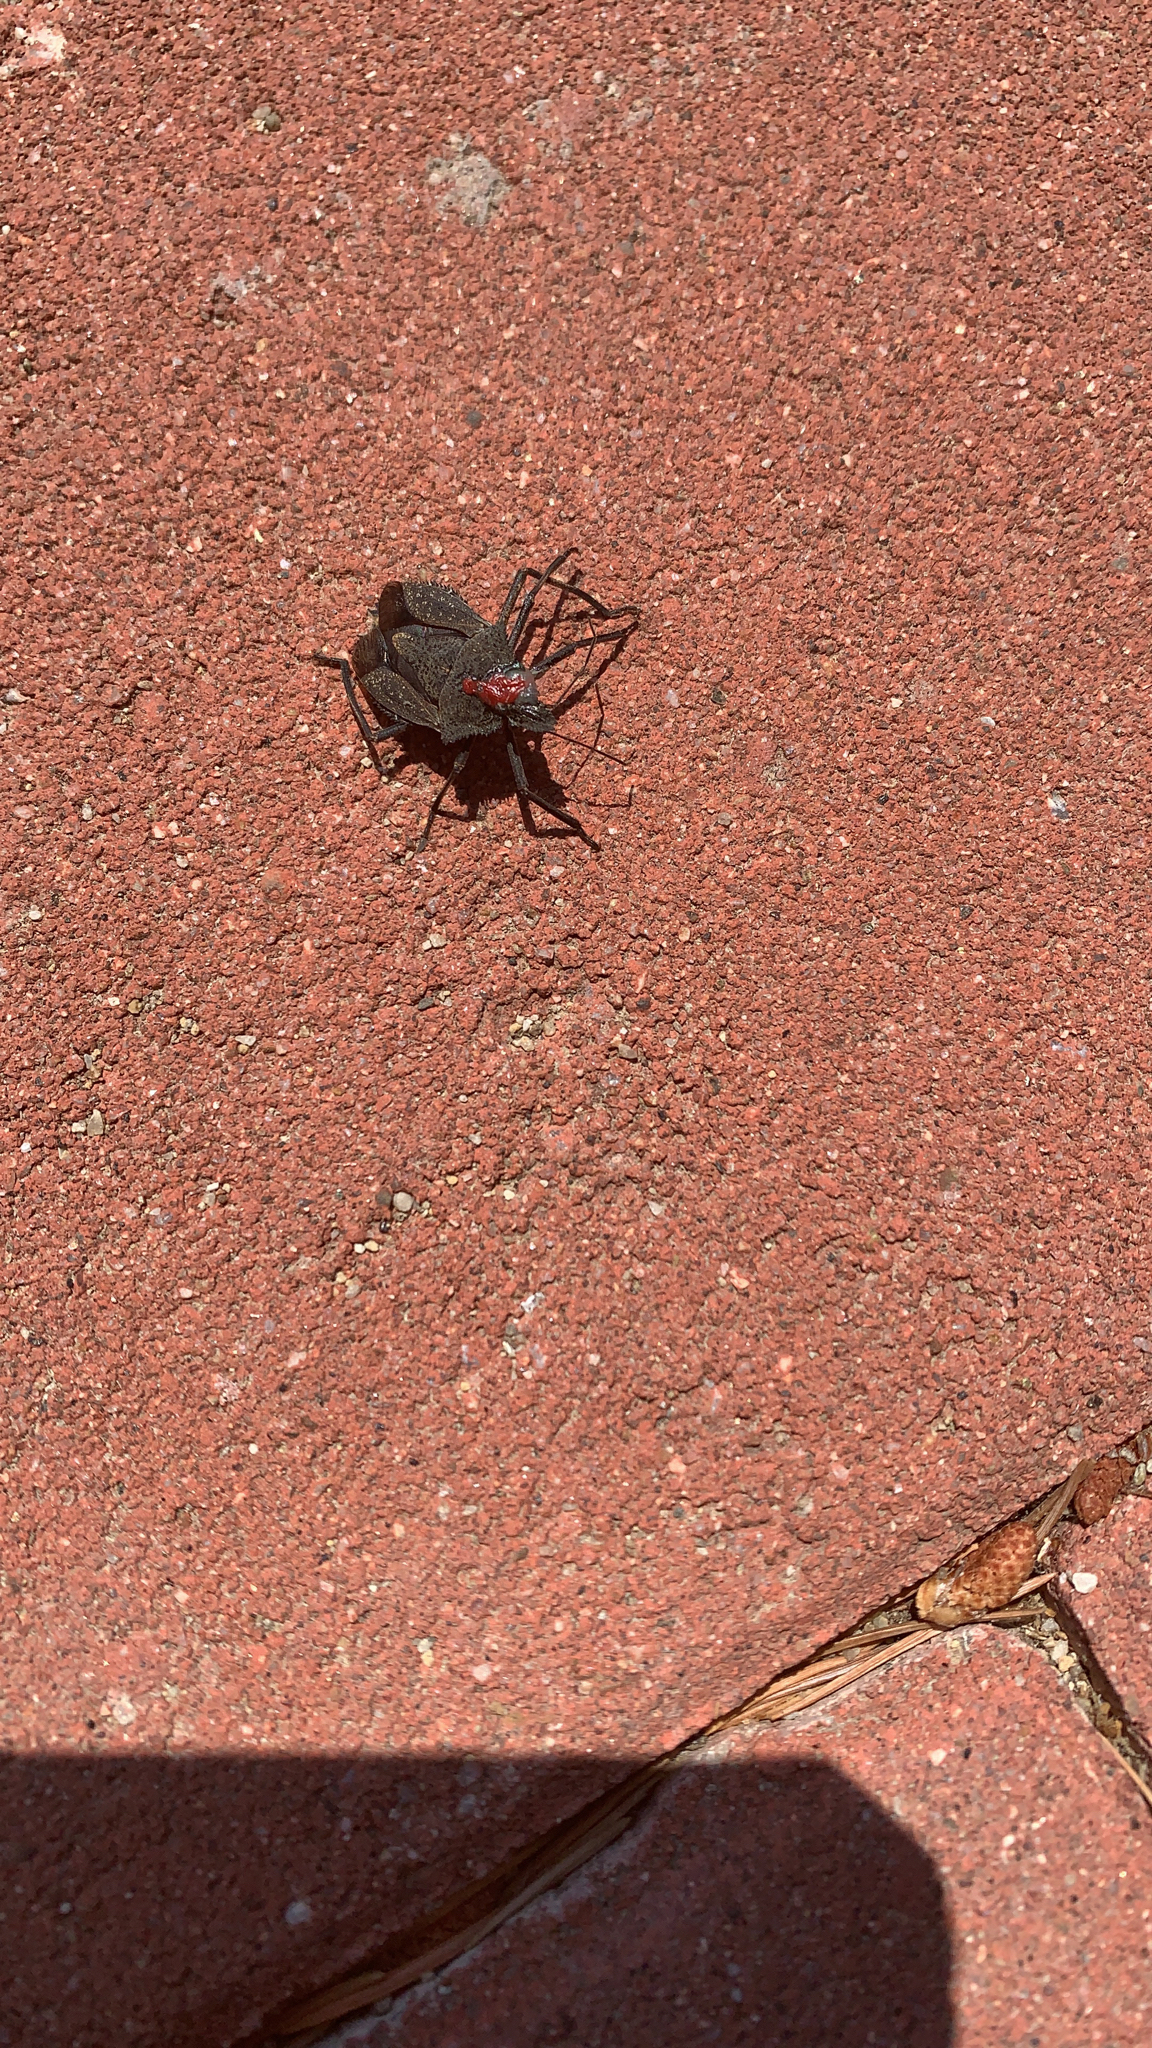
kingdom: Animalia
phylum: Arthropoda
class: Insecta
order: Hemiptera
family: Pentatomidae
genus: Mustha
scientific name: Mustha spinosula
